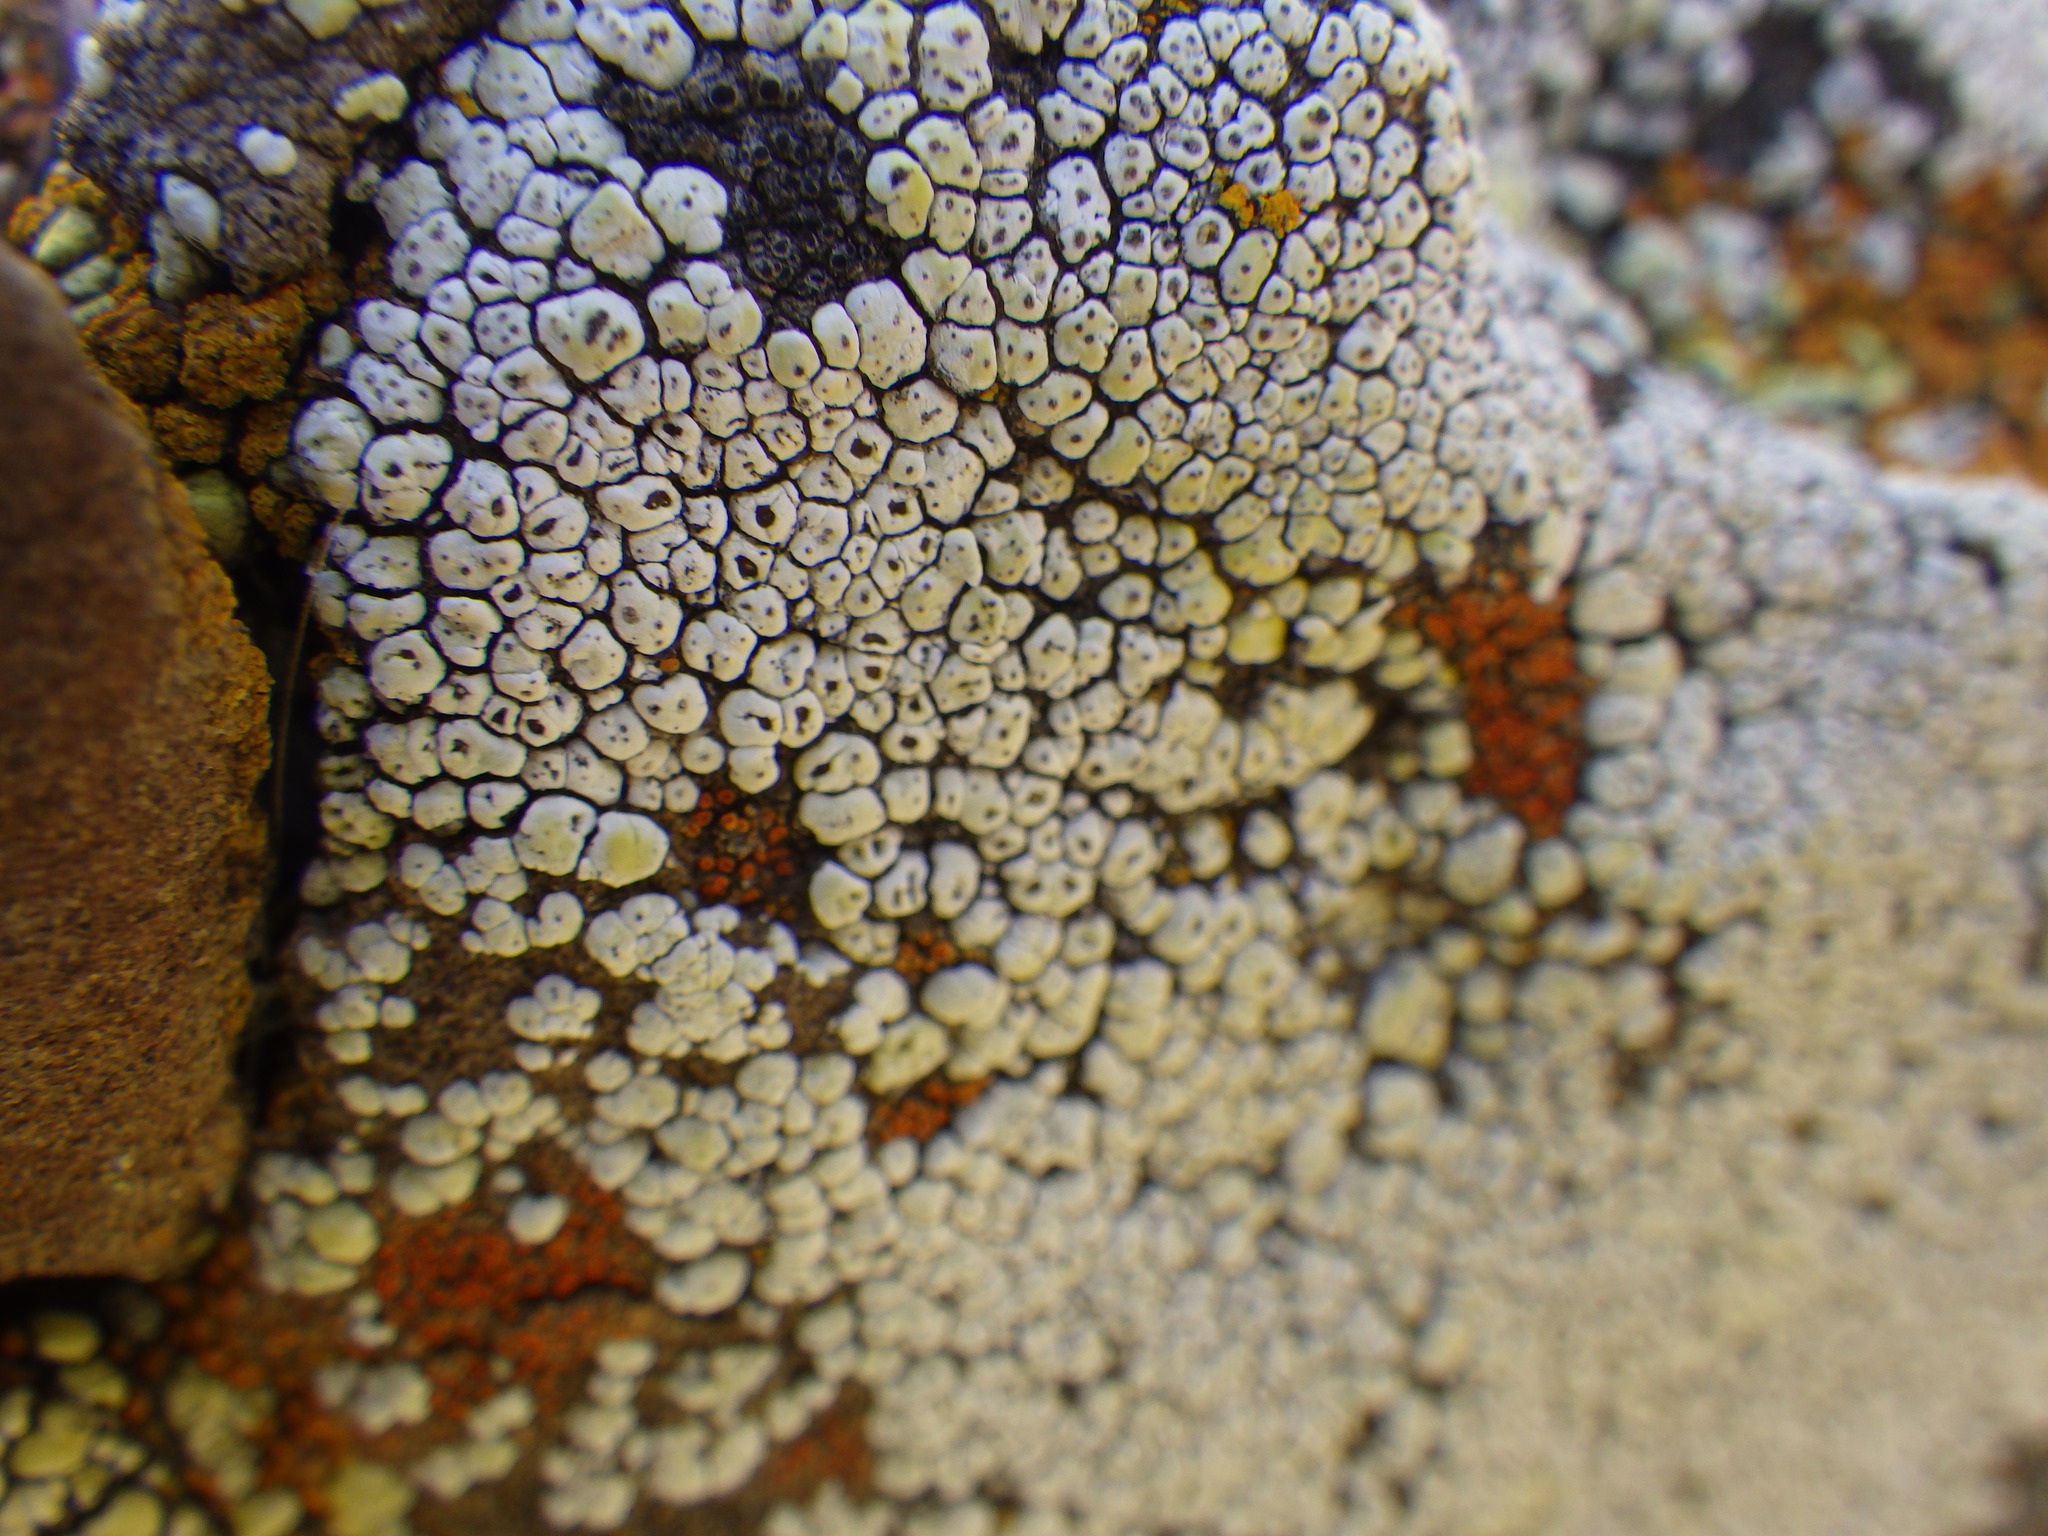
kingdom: Fungi
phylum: Ascomycota
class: Lecanoromycetes
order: Acarosporales
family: Acarosporaceae
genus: Acarospora
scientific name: Acarospora socialis
